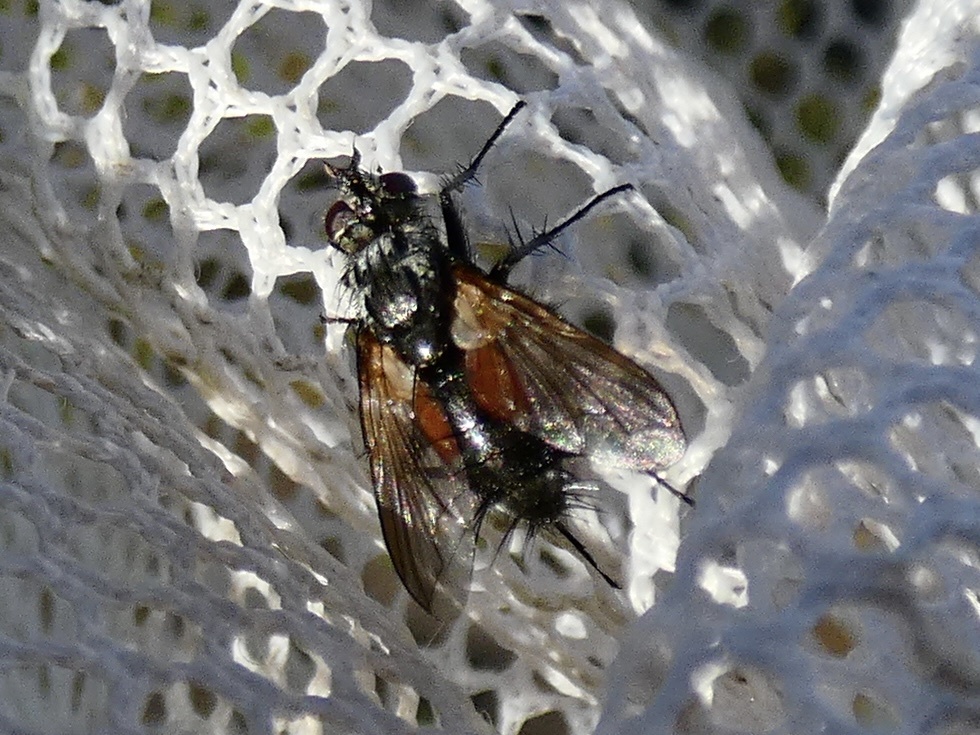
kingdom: Animalia
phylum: Arthropoda
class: Insecta
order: Diptera
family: Tachinidae
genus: Eriothrix
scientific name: Eriothrix rufomaculatus
